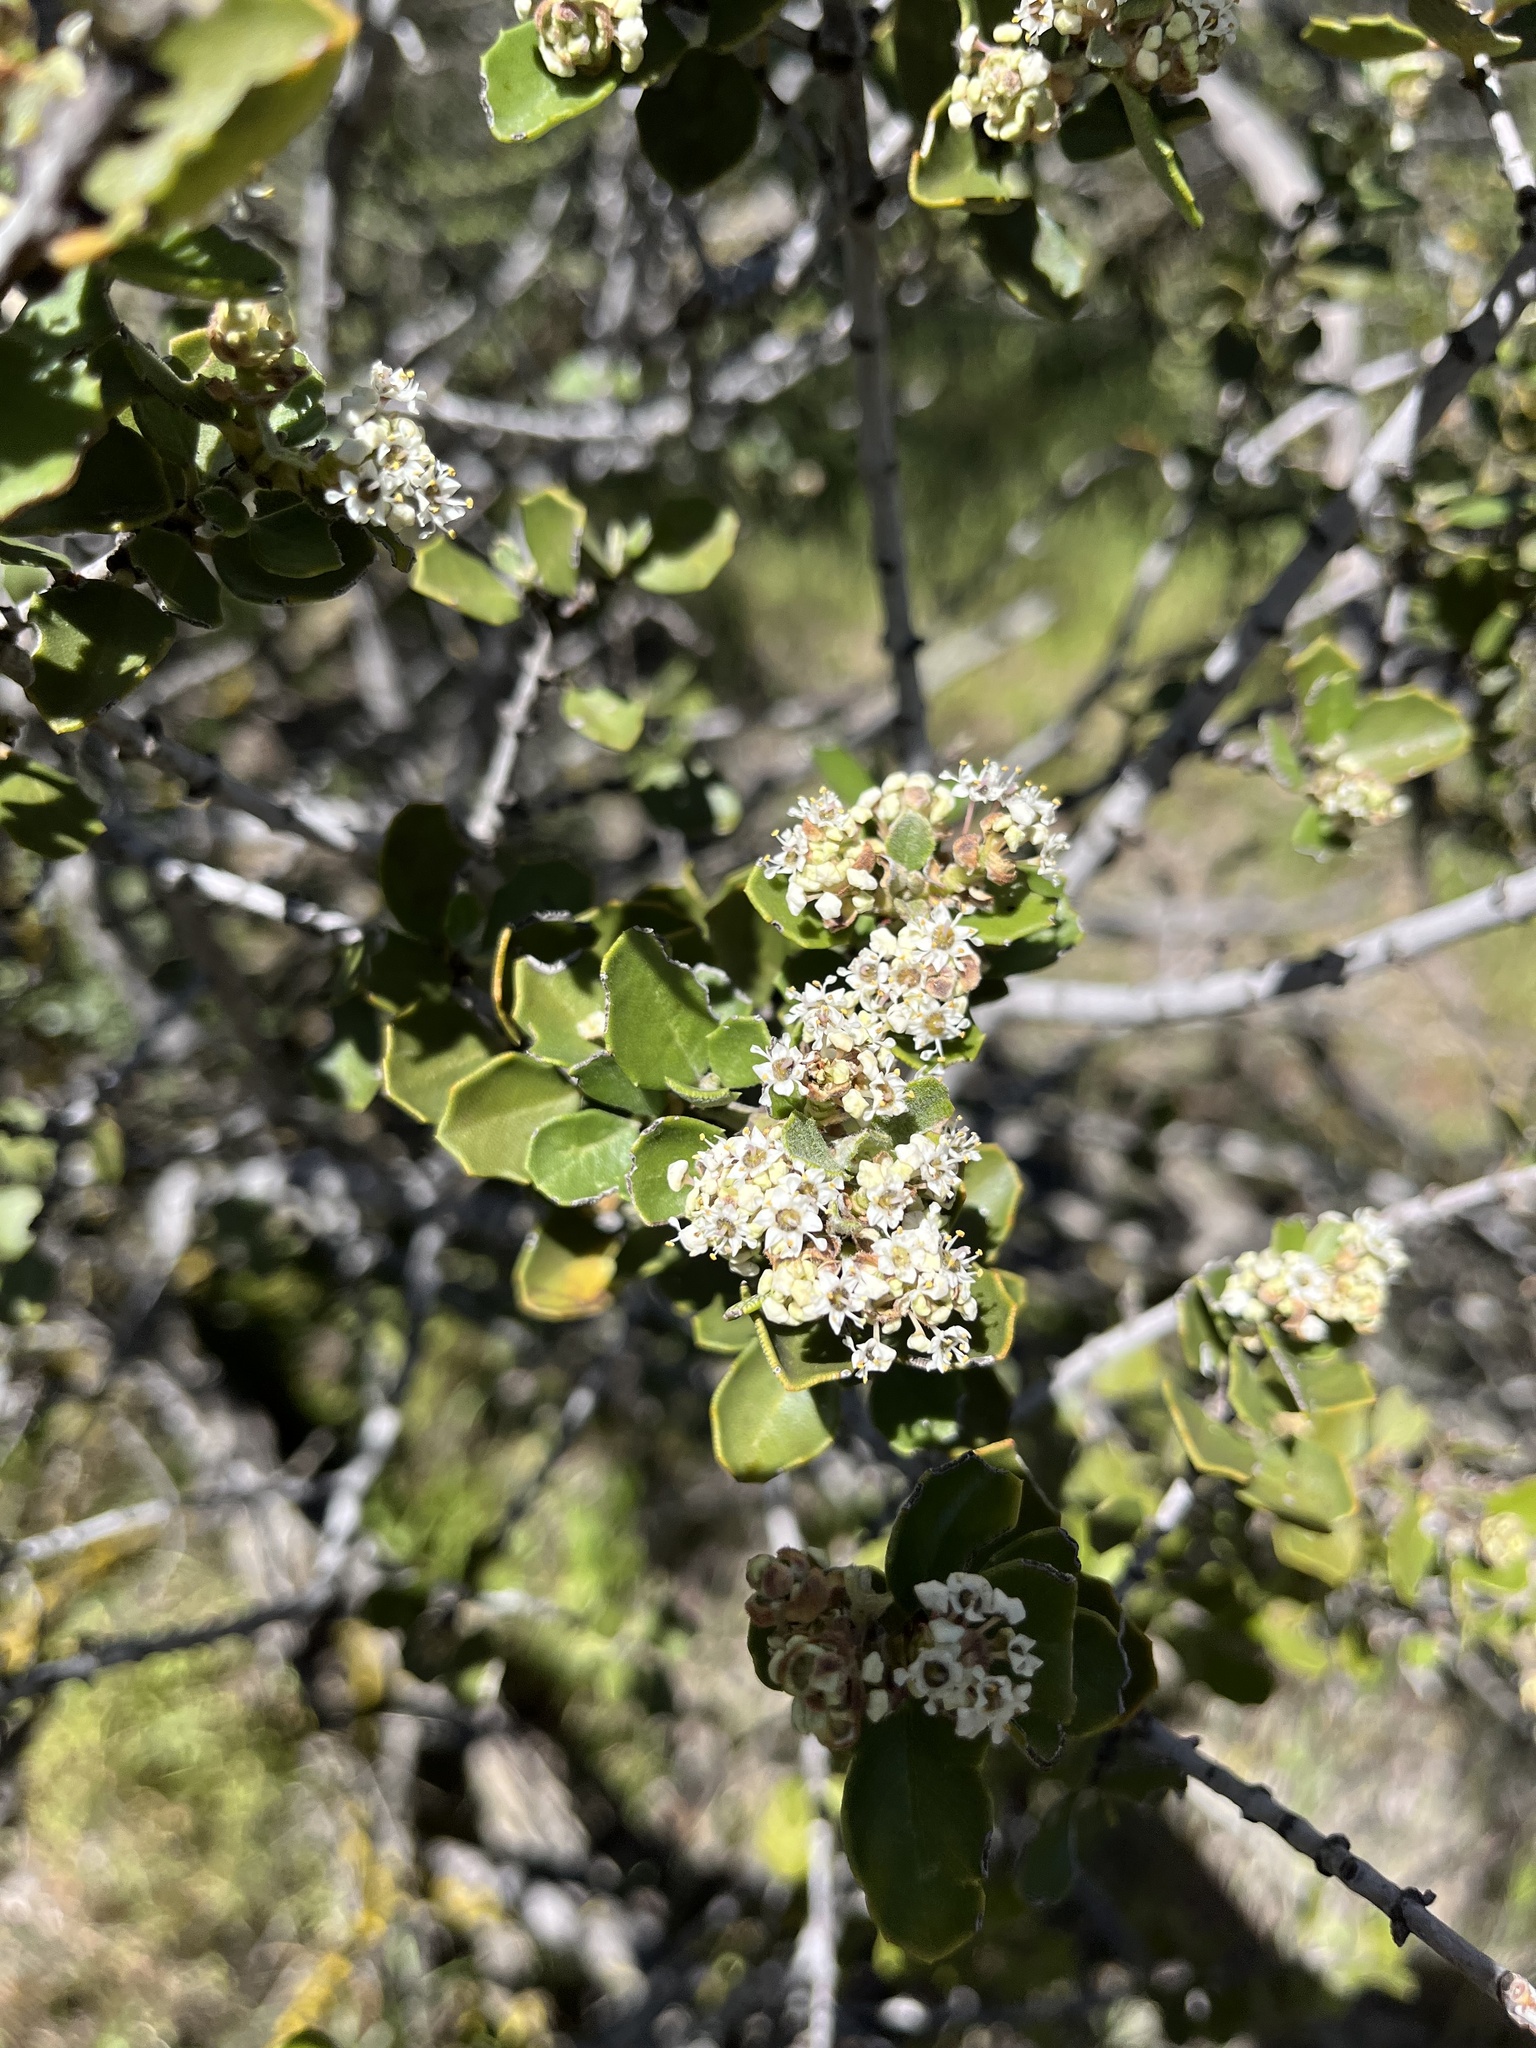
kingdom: Plantae
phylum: Tracheophyta
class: Magnoliopsida
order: Rosales
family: Rhamnaceae
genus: Ceanothus
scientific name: Ceanothus perplexans
